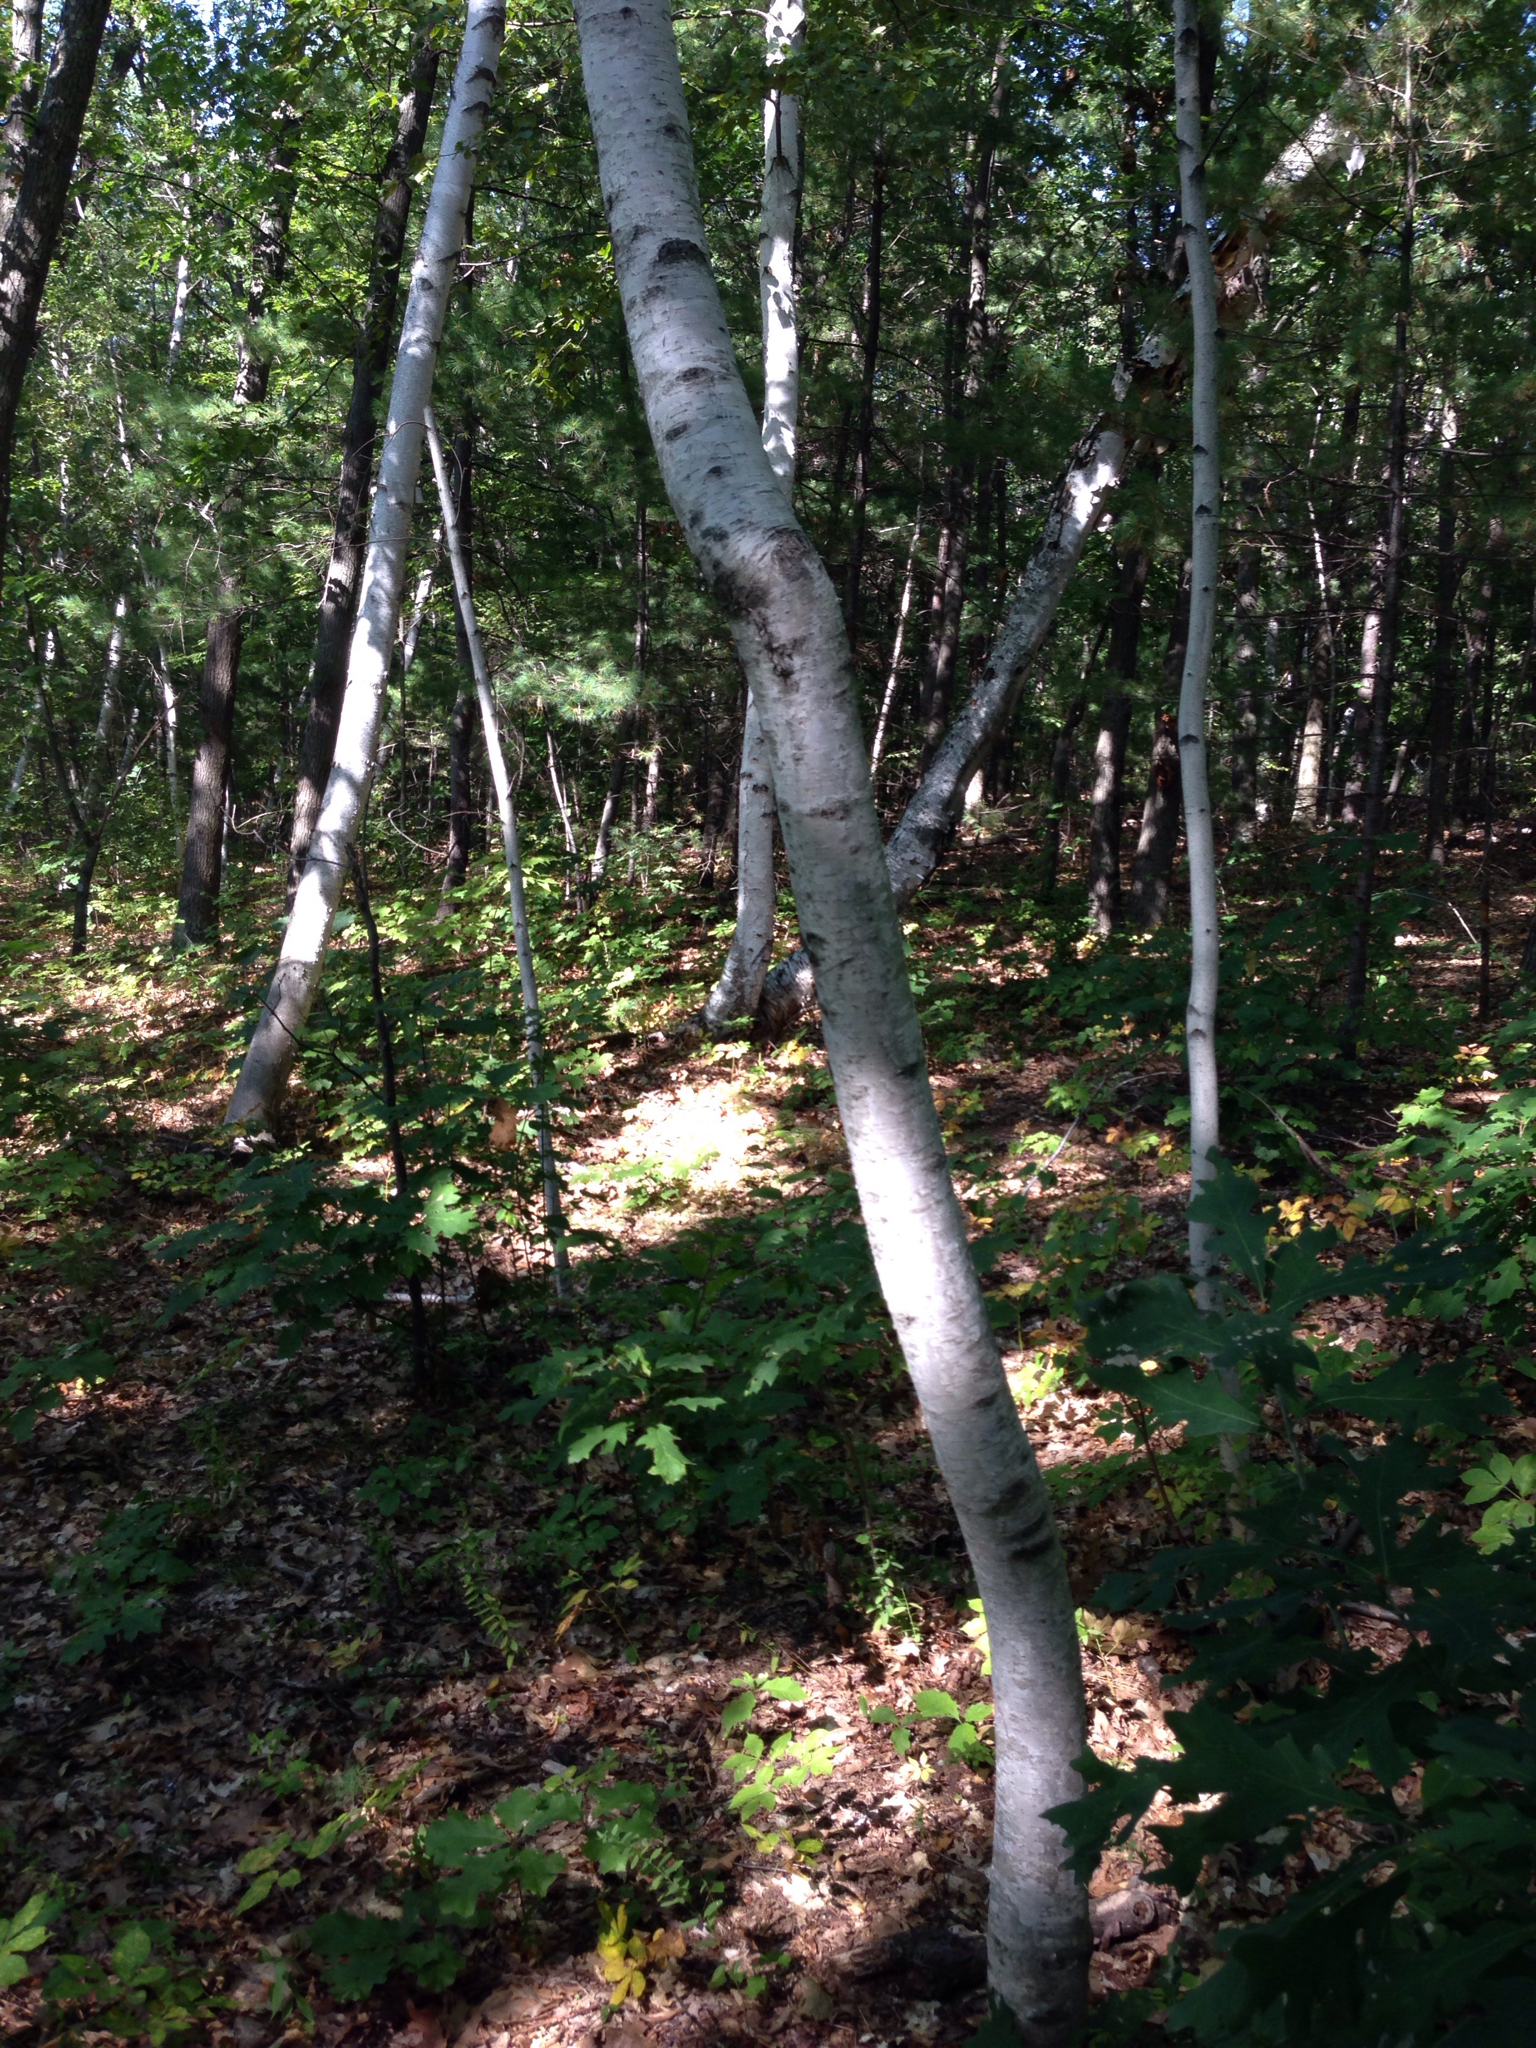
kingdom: Plantae
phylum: Tracheophyta
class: Magnoliopsida
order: Fagales
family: Betulaceae
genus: Betula
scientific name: Betula populifolia
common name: Fire birch
